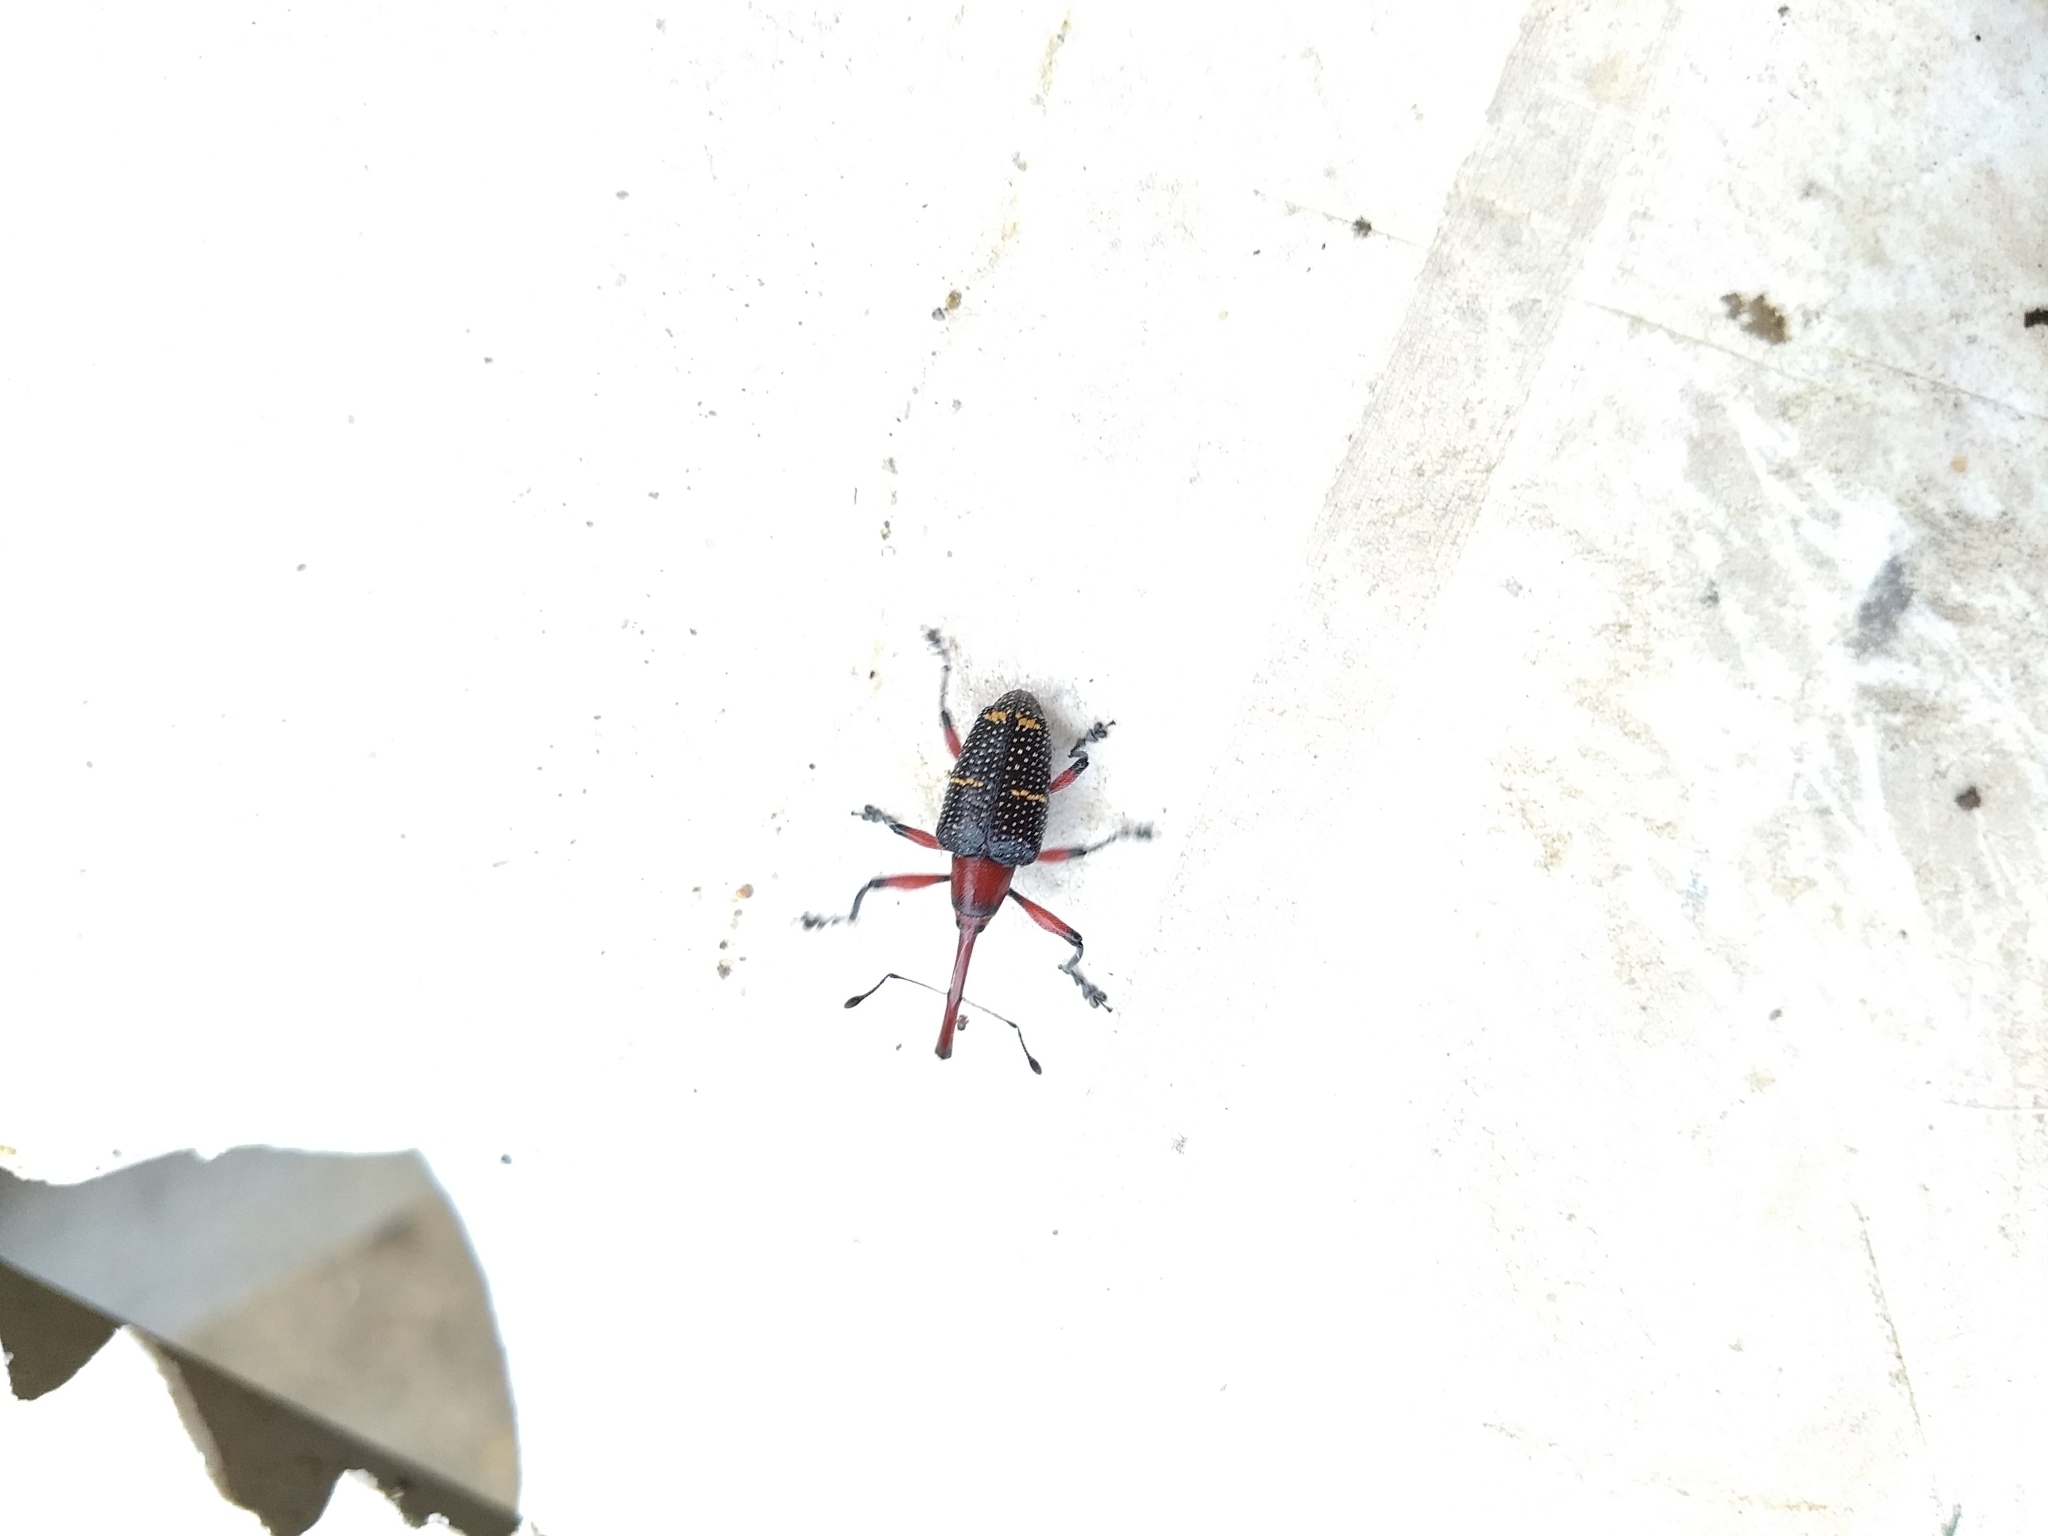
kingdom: Animalia
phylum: Arthropoda
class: Insecta
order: Coleoptera
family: Curculionidae
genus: Heilipus
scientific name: Heilipus lauri
